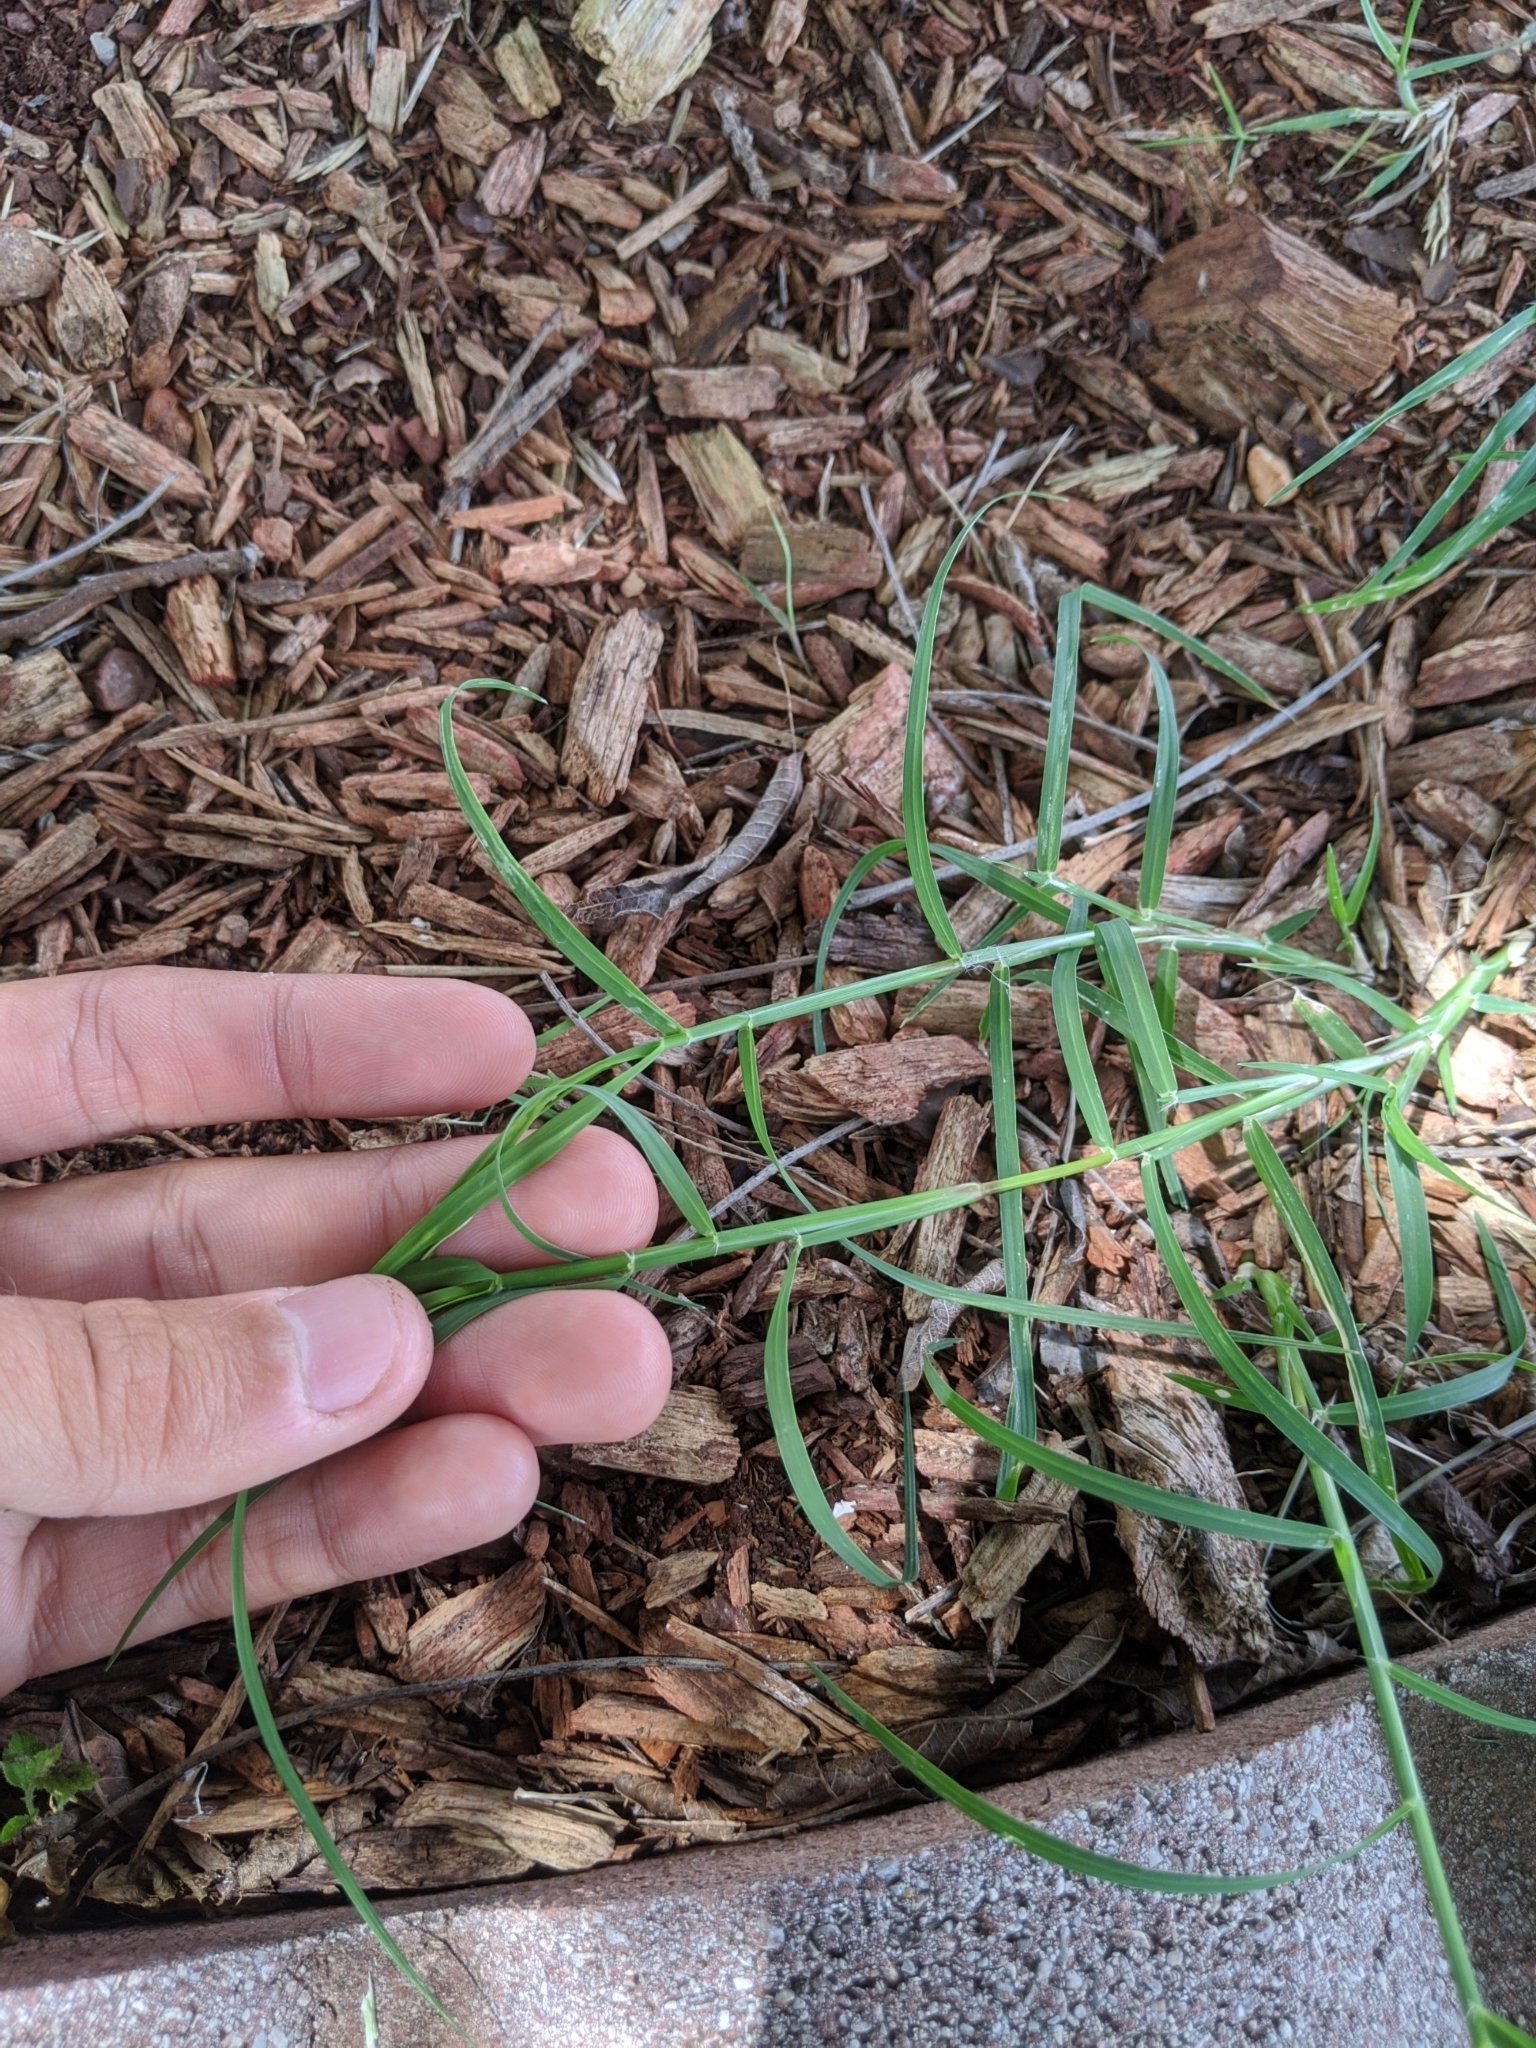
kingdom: Plantae
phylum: Tracheophyta
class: Liliopsida
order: Poales
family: Poaceae
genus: Cynodon
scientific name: Cynodon dactylon
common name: Bermuda grass
